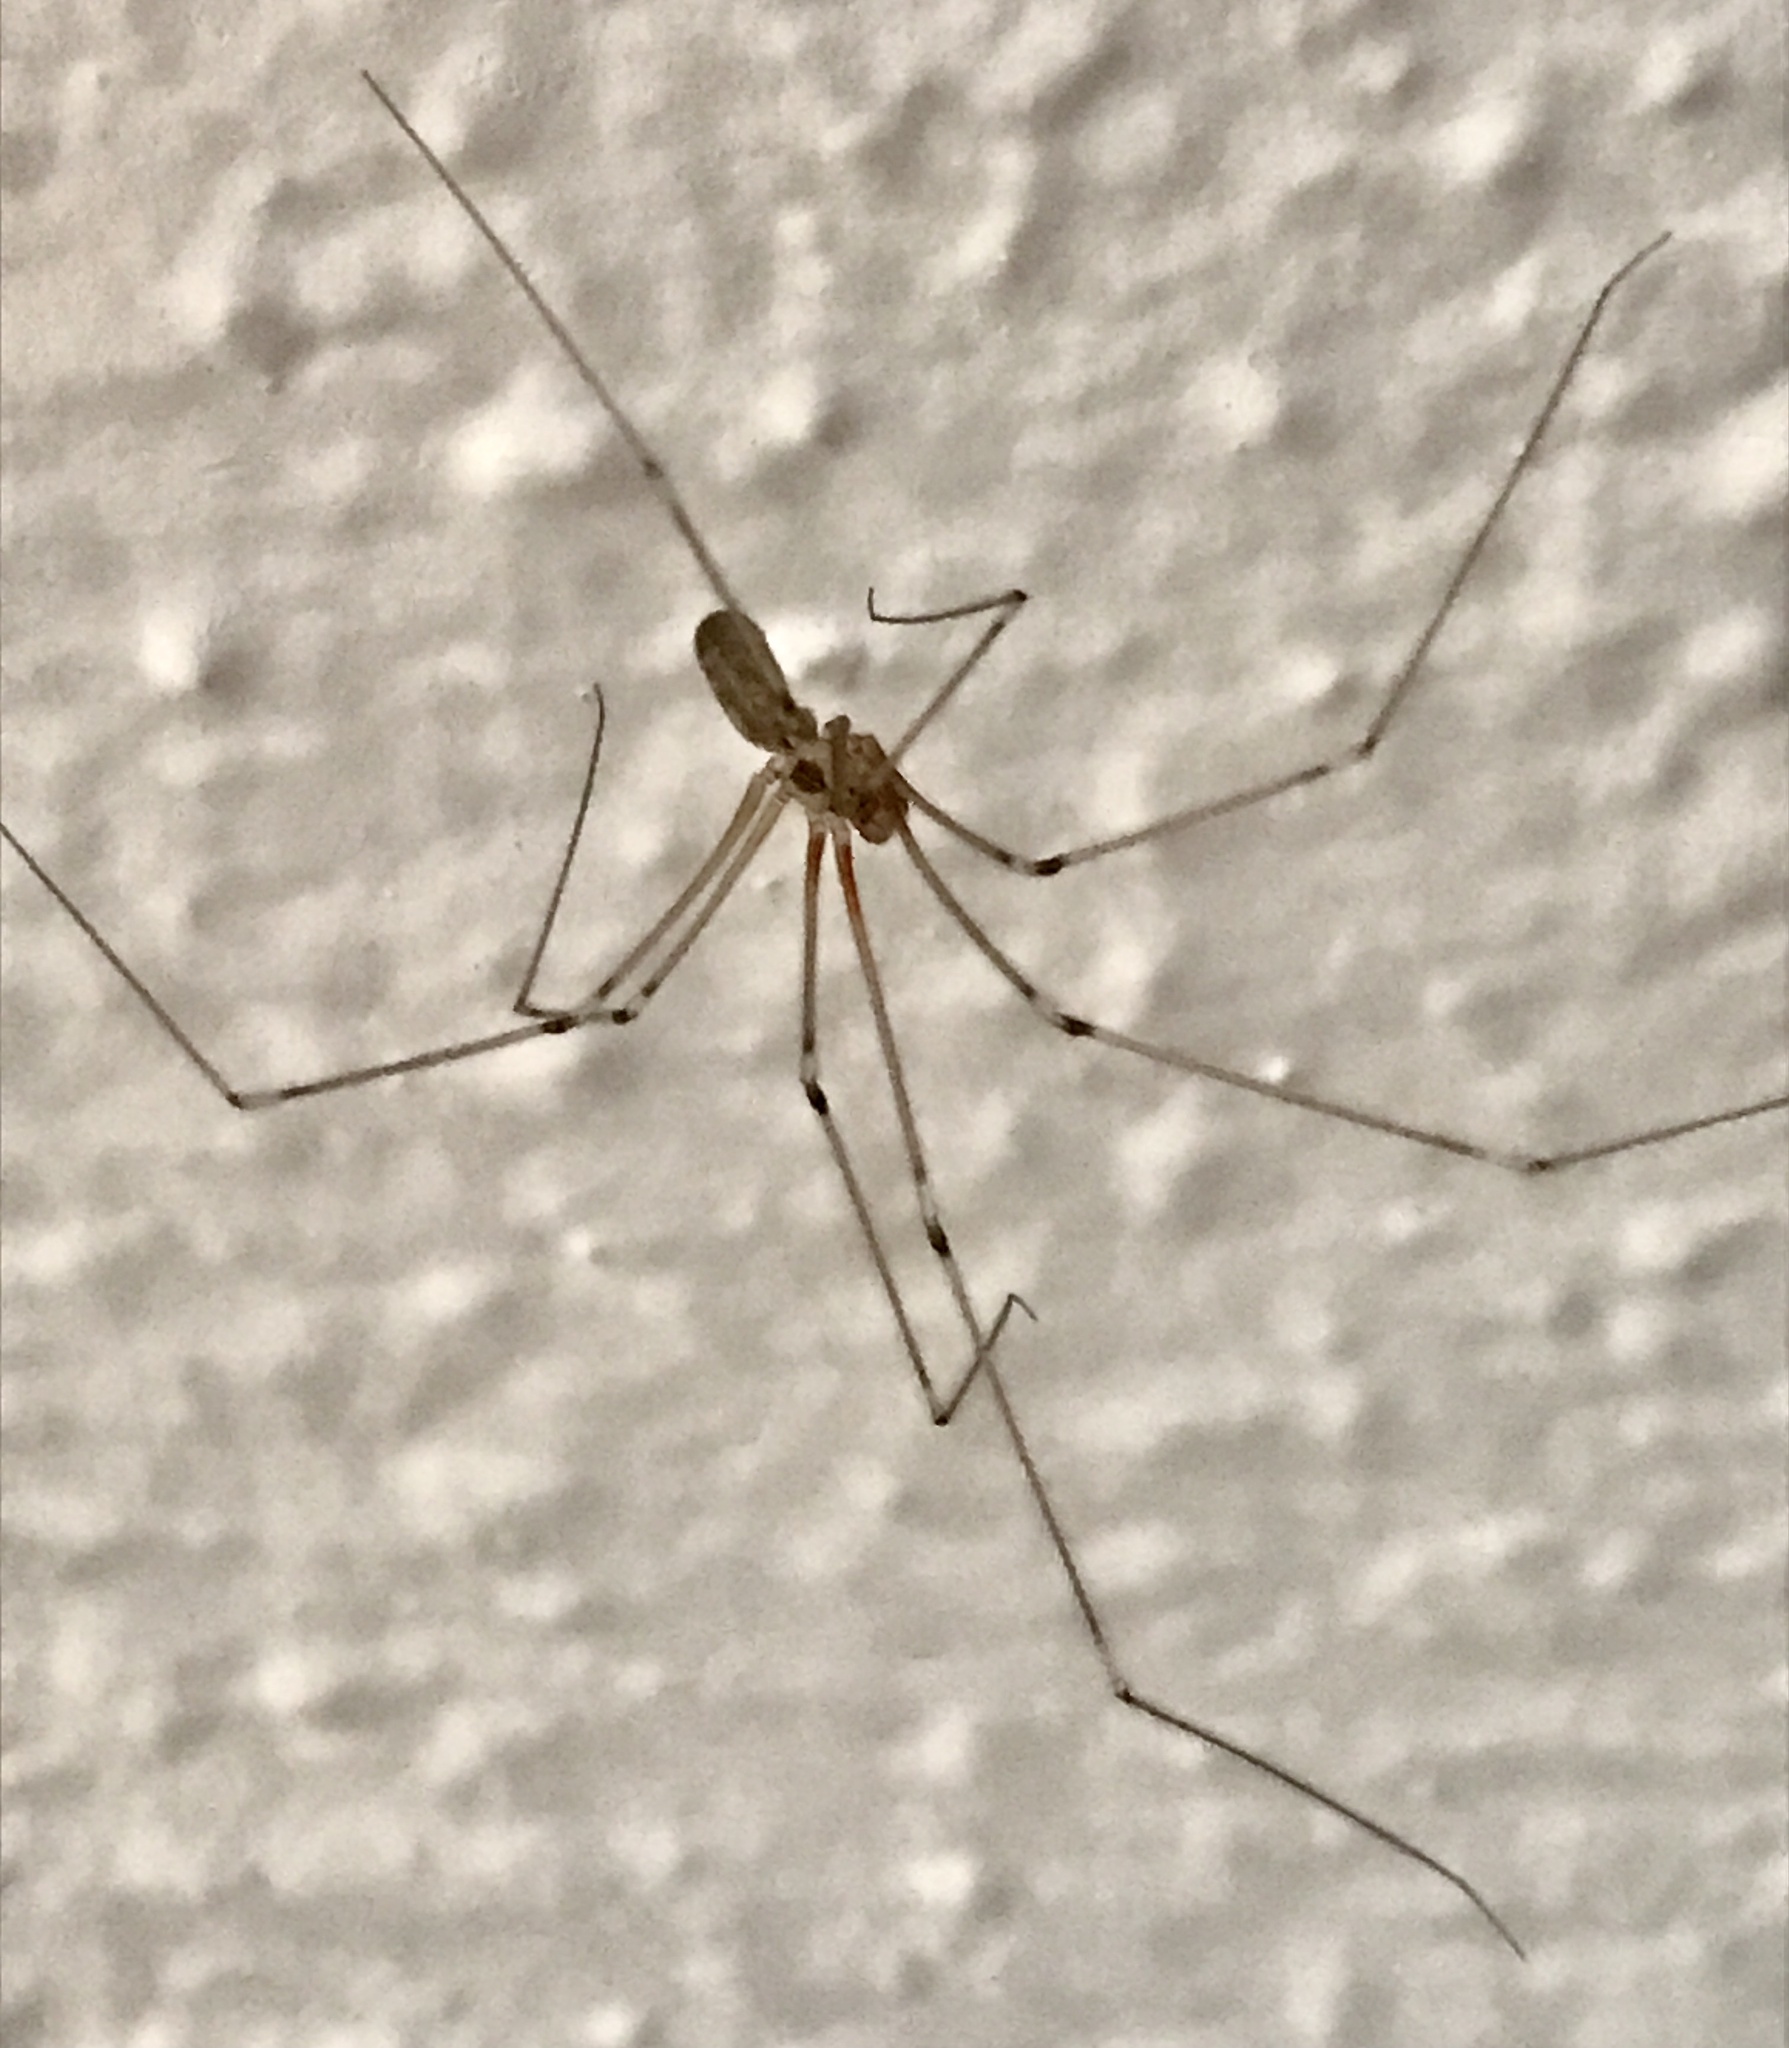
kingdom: Animalia
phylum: Arthropoda
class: Arachnida
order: Araneae
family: Pholcidae
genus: Pholcus
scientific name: Pholcus phalangioides
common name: Longbodied cellar spider
